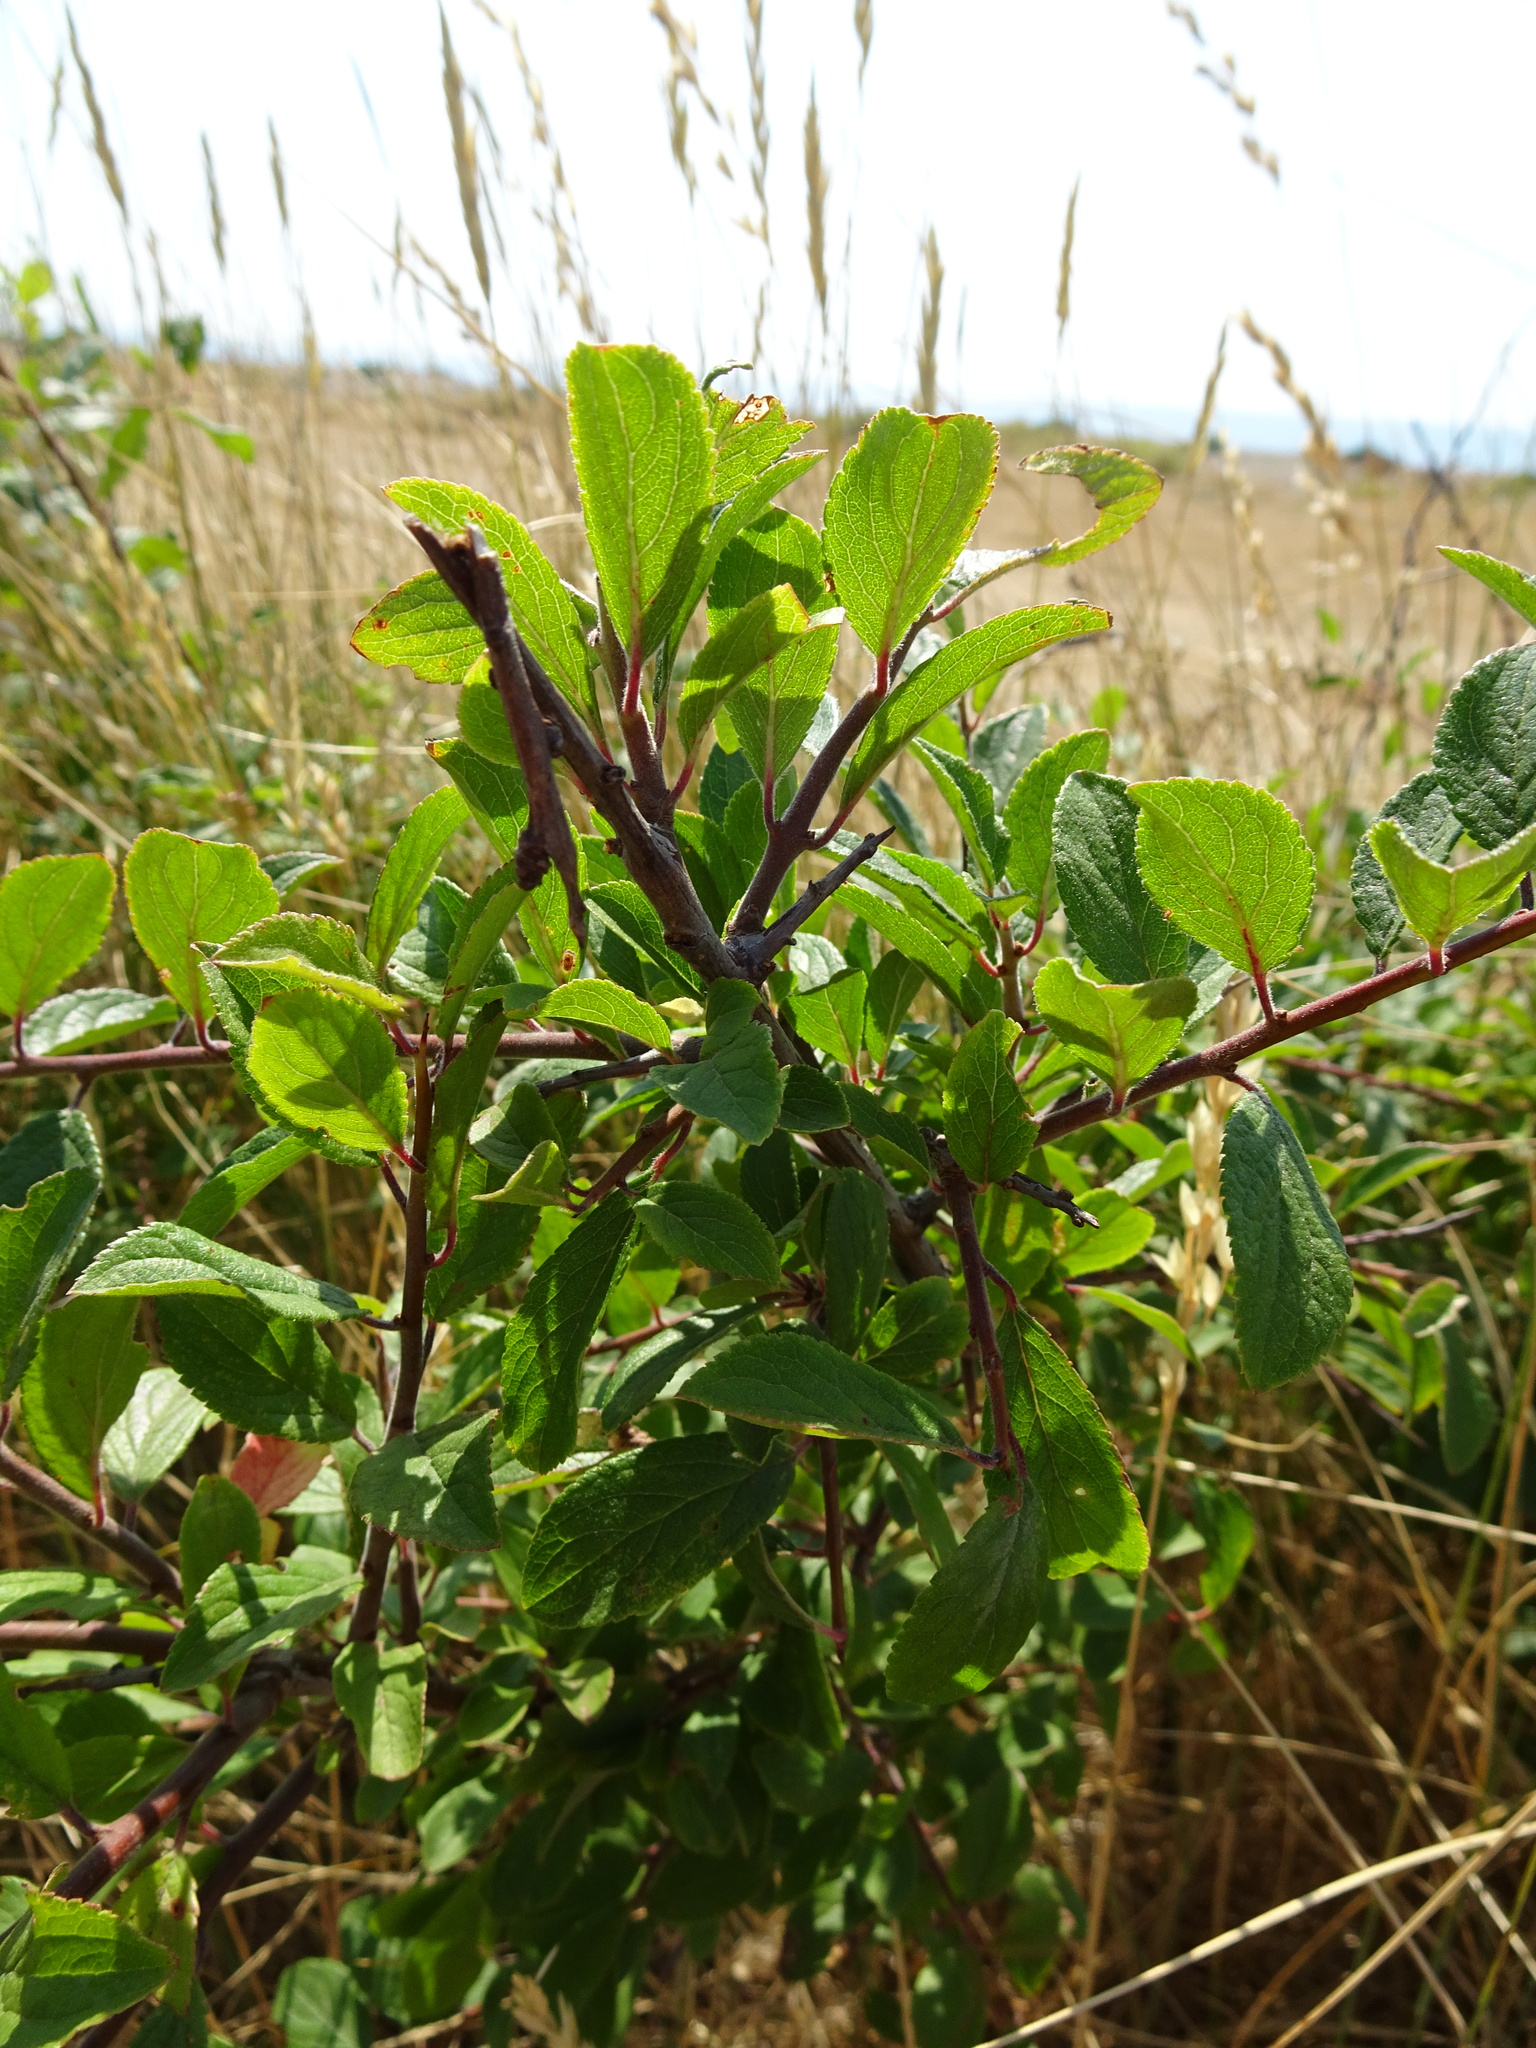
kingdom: Plantae
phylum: Tracheophyta
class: Magnoliopsida
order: Rosales
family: Rosaceae
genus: Prunus
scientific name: Prunus spinosa
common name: Blackthorn
